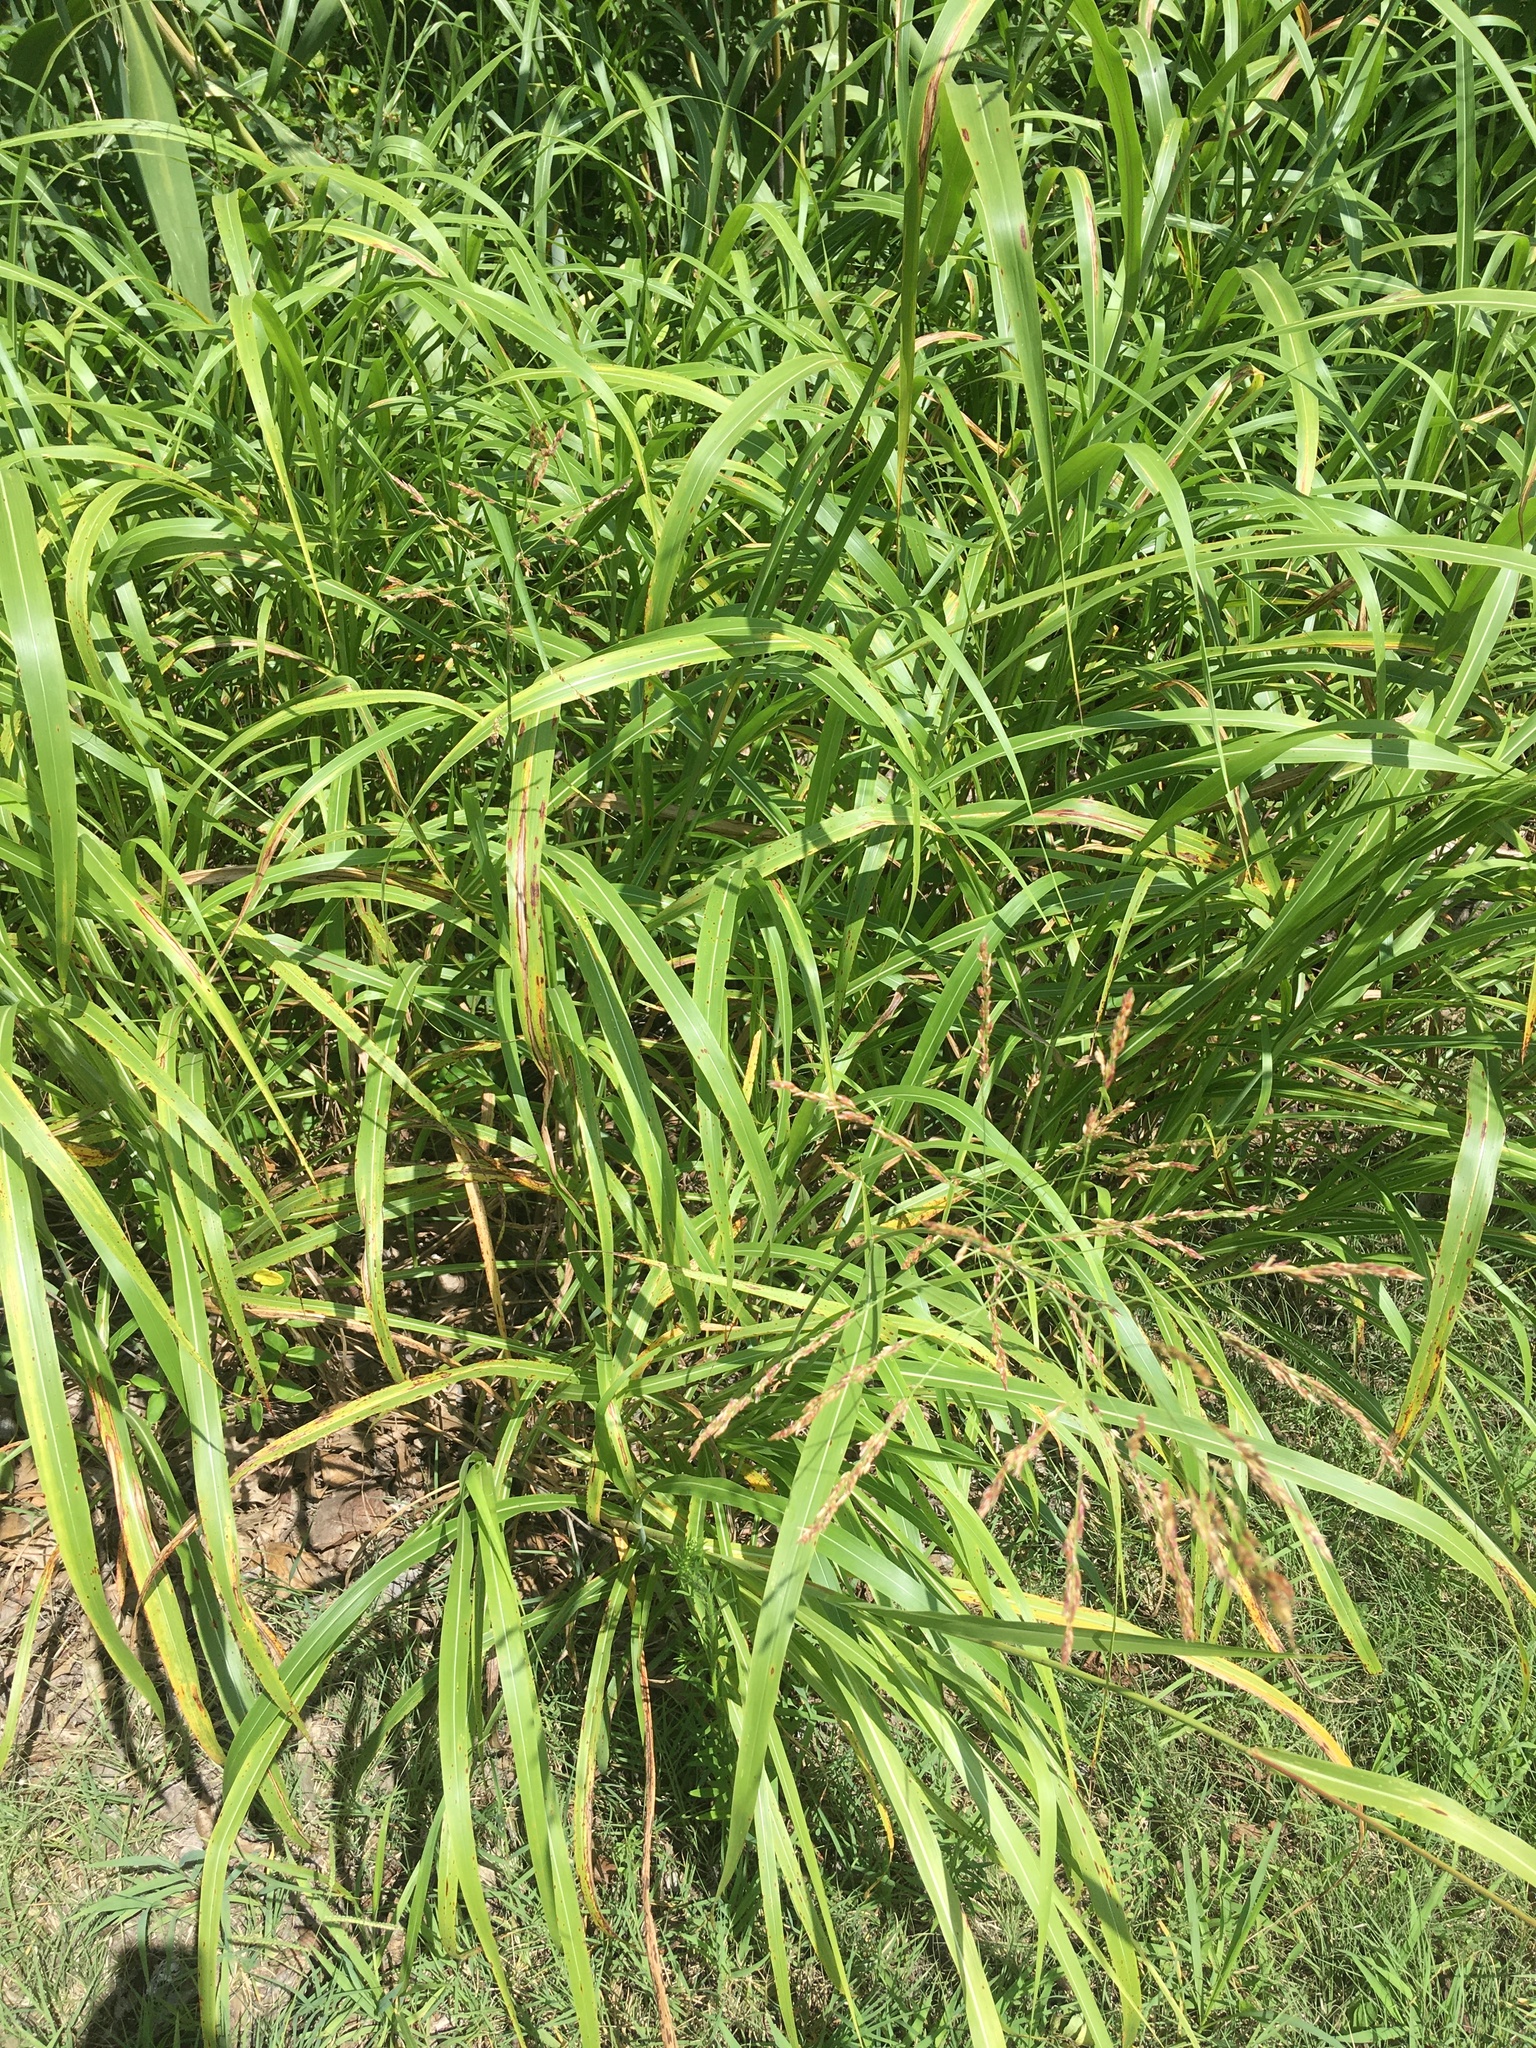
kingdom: Plantae
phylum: Tracheophyta
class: Liliopsida
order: Poales
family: Poaceae
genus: Sorghum
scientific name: Sorghum halepense
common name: Johnson-grass
